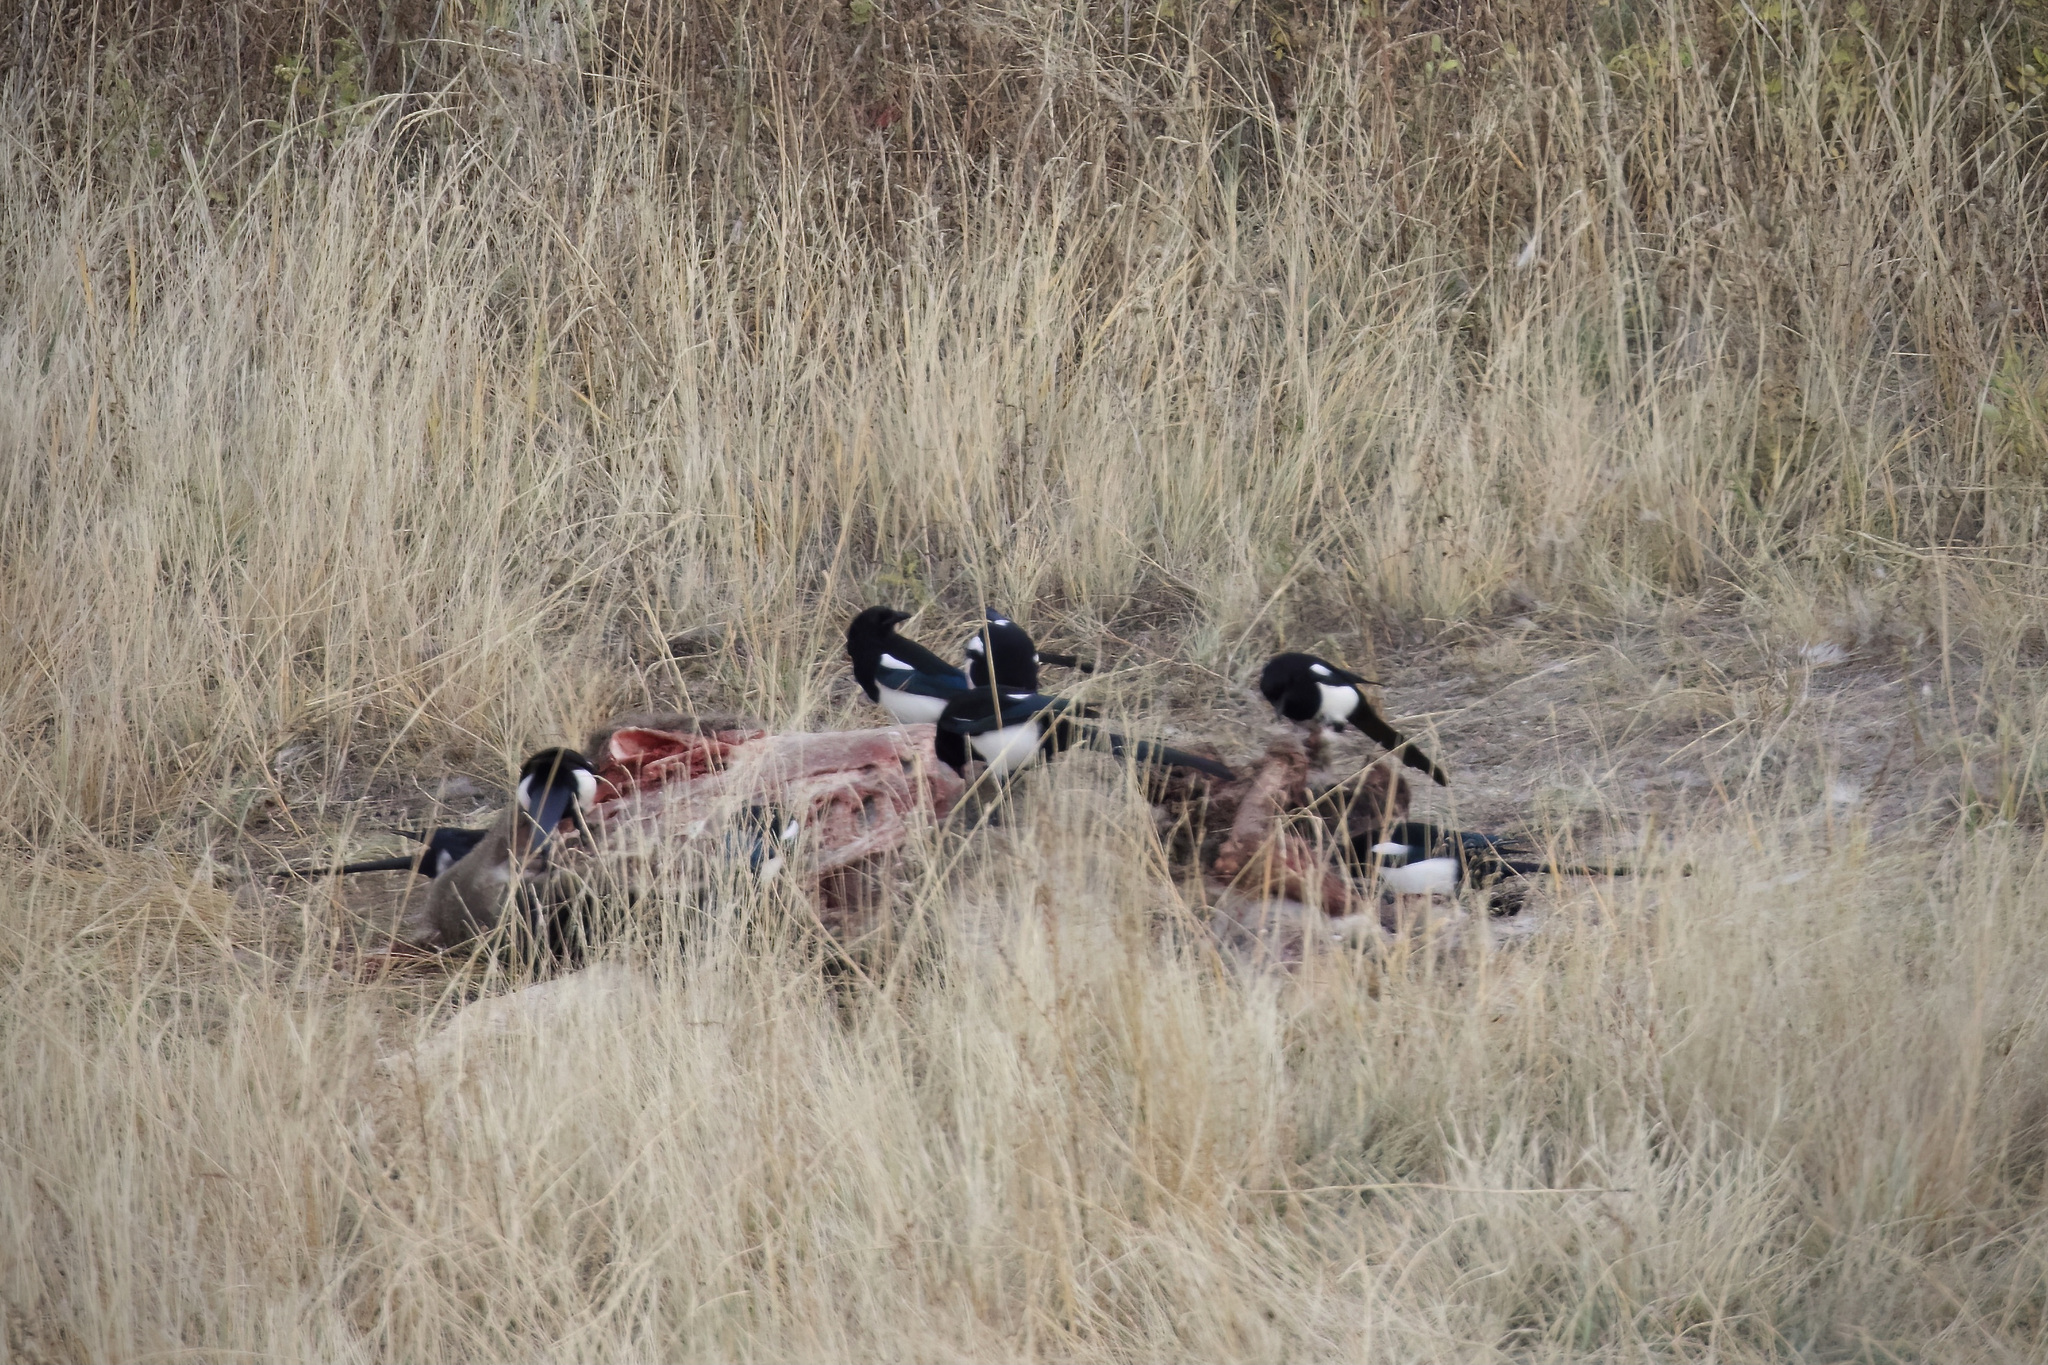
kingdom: Animalia
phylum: Chordata
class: Aves
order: Passeriformes
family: Corvidae
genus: Pica
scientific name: Pica hudsonia
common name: Black-billed magpie
